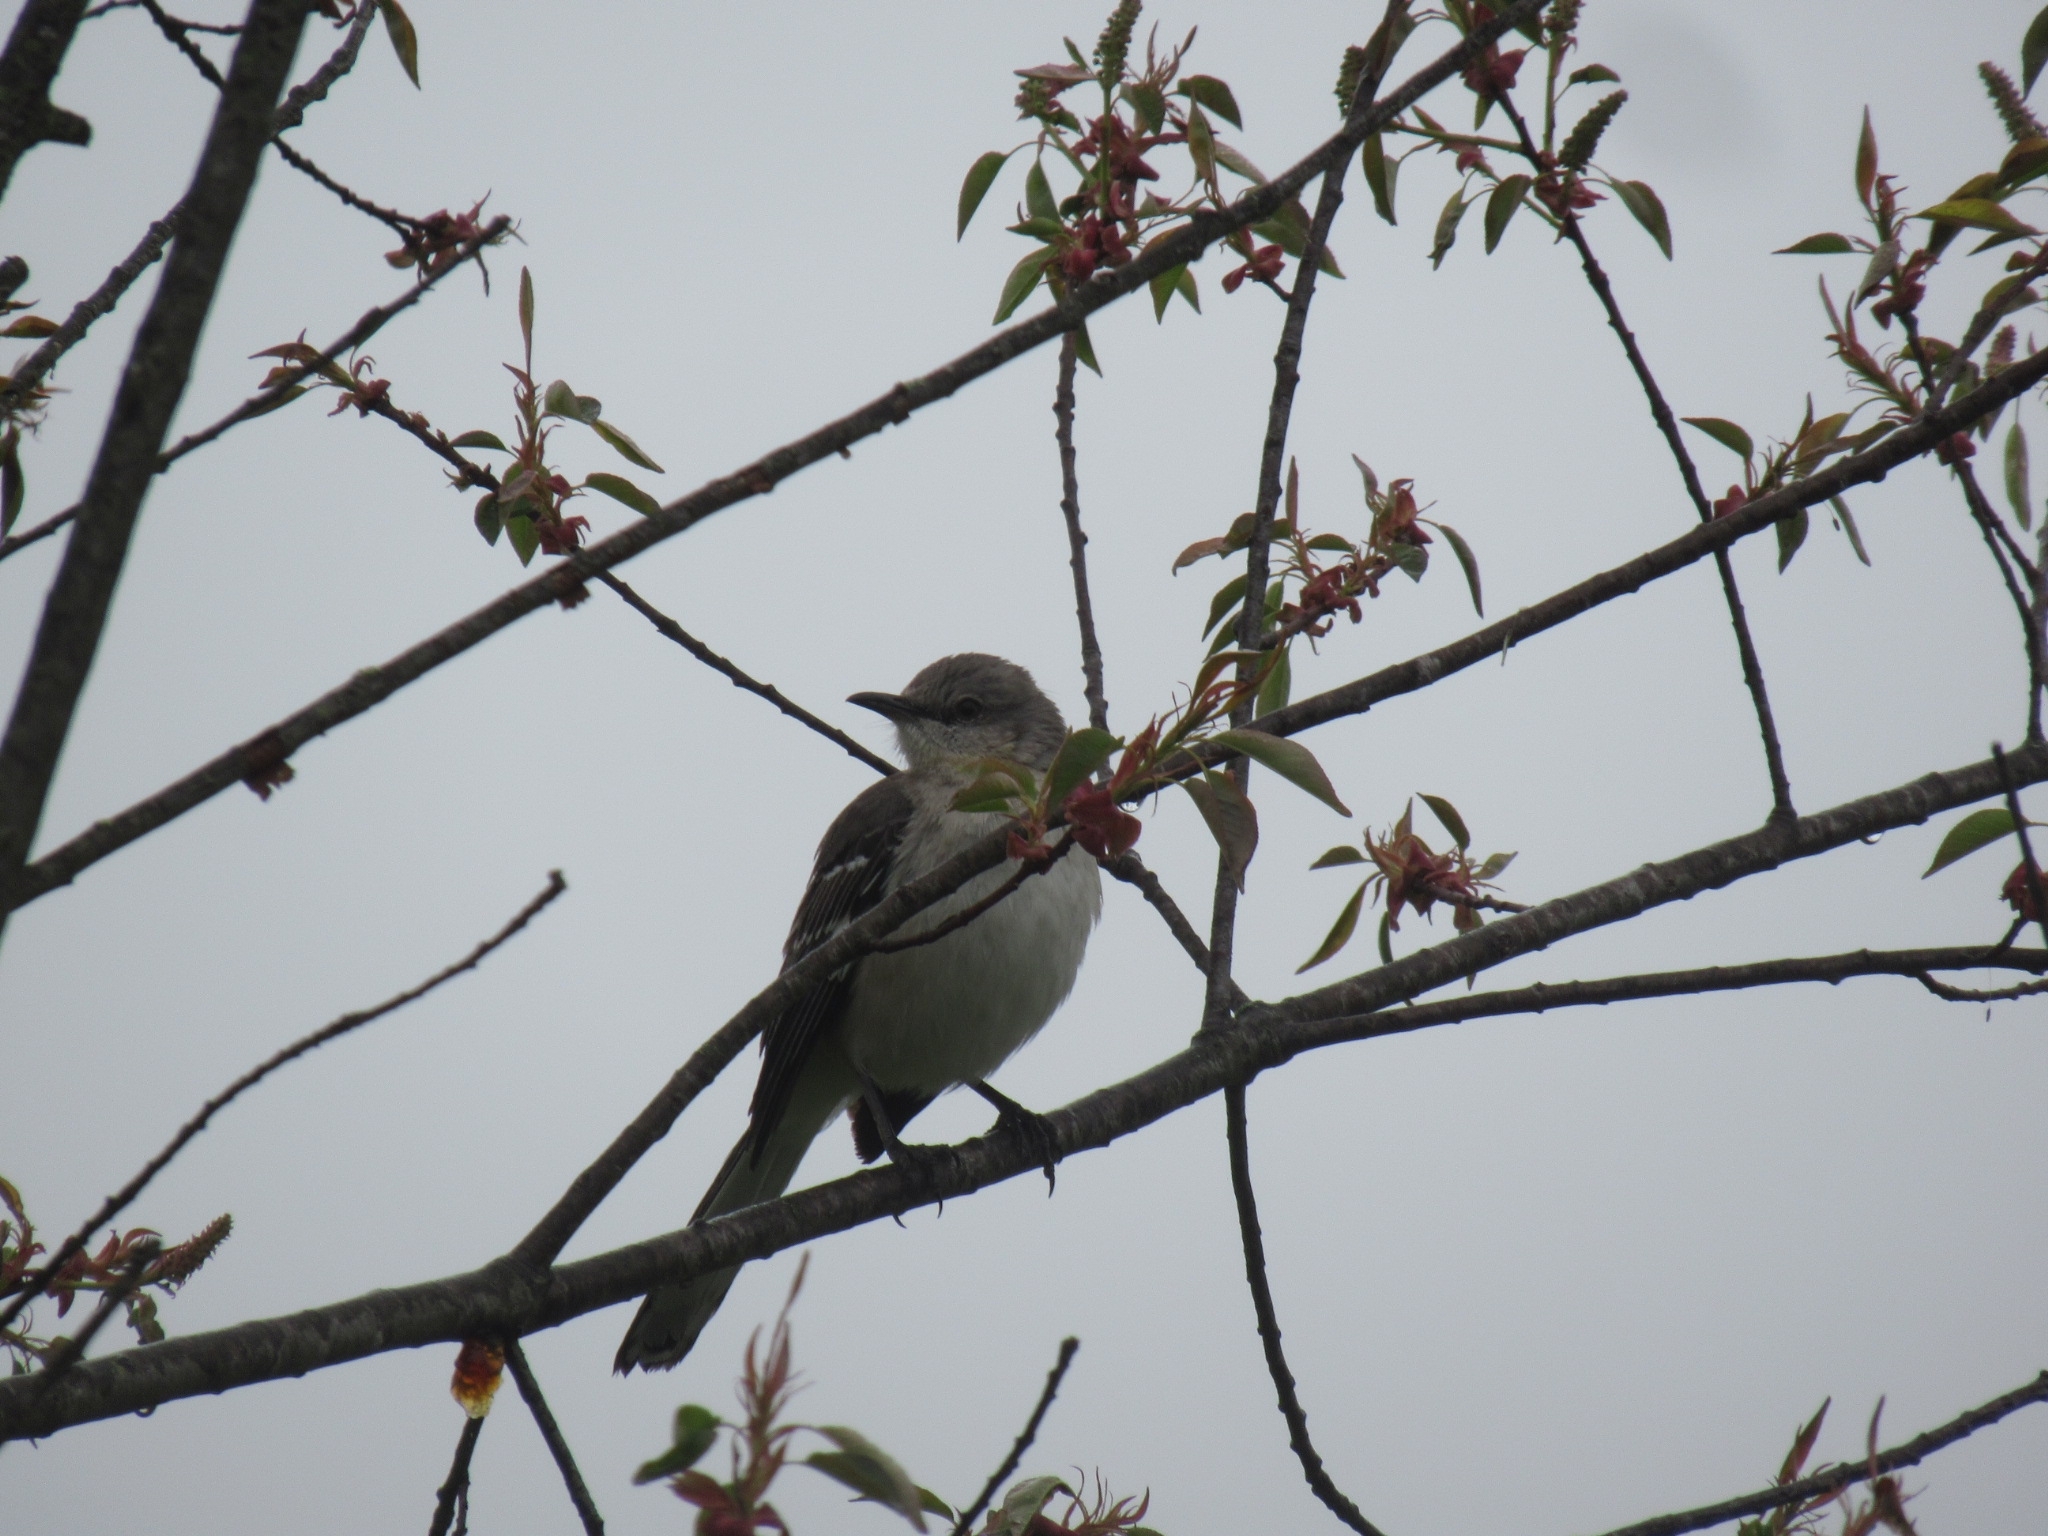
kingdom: Animalia
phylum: Chordata
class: Aves
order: Passeriformes
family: Mimidae
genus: Mimus
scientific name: Mimus polyglottos
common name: Northern mockingbird
